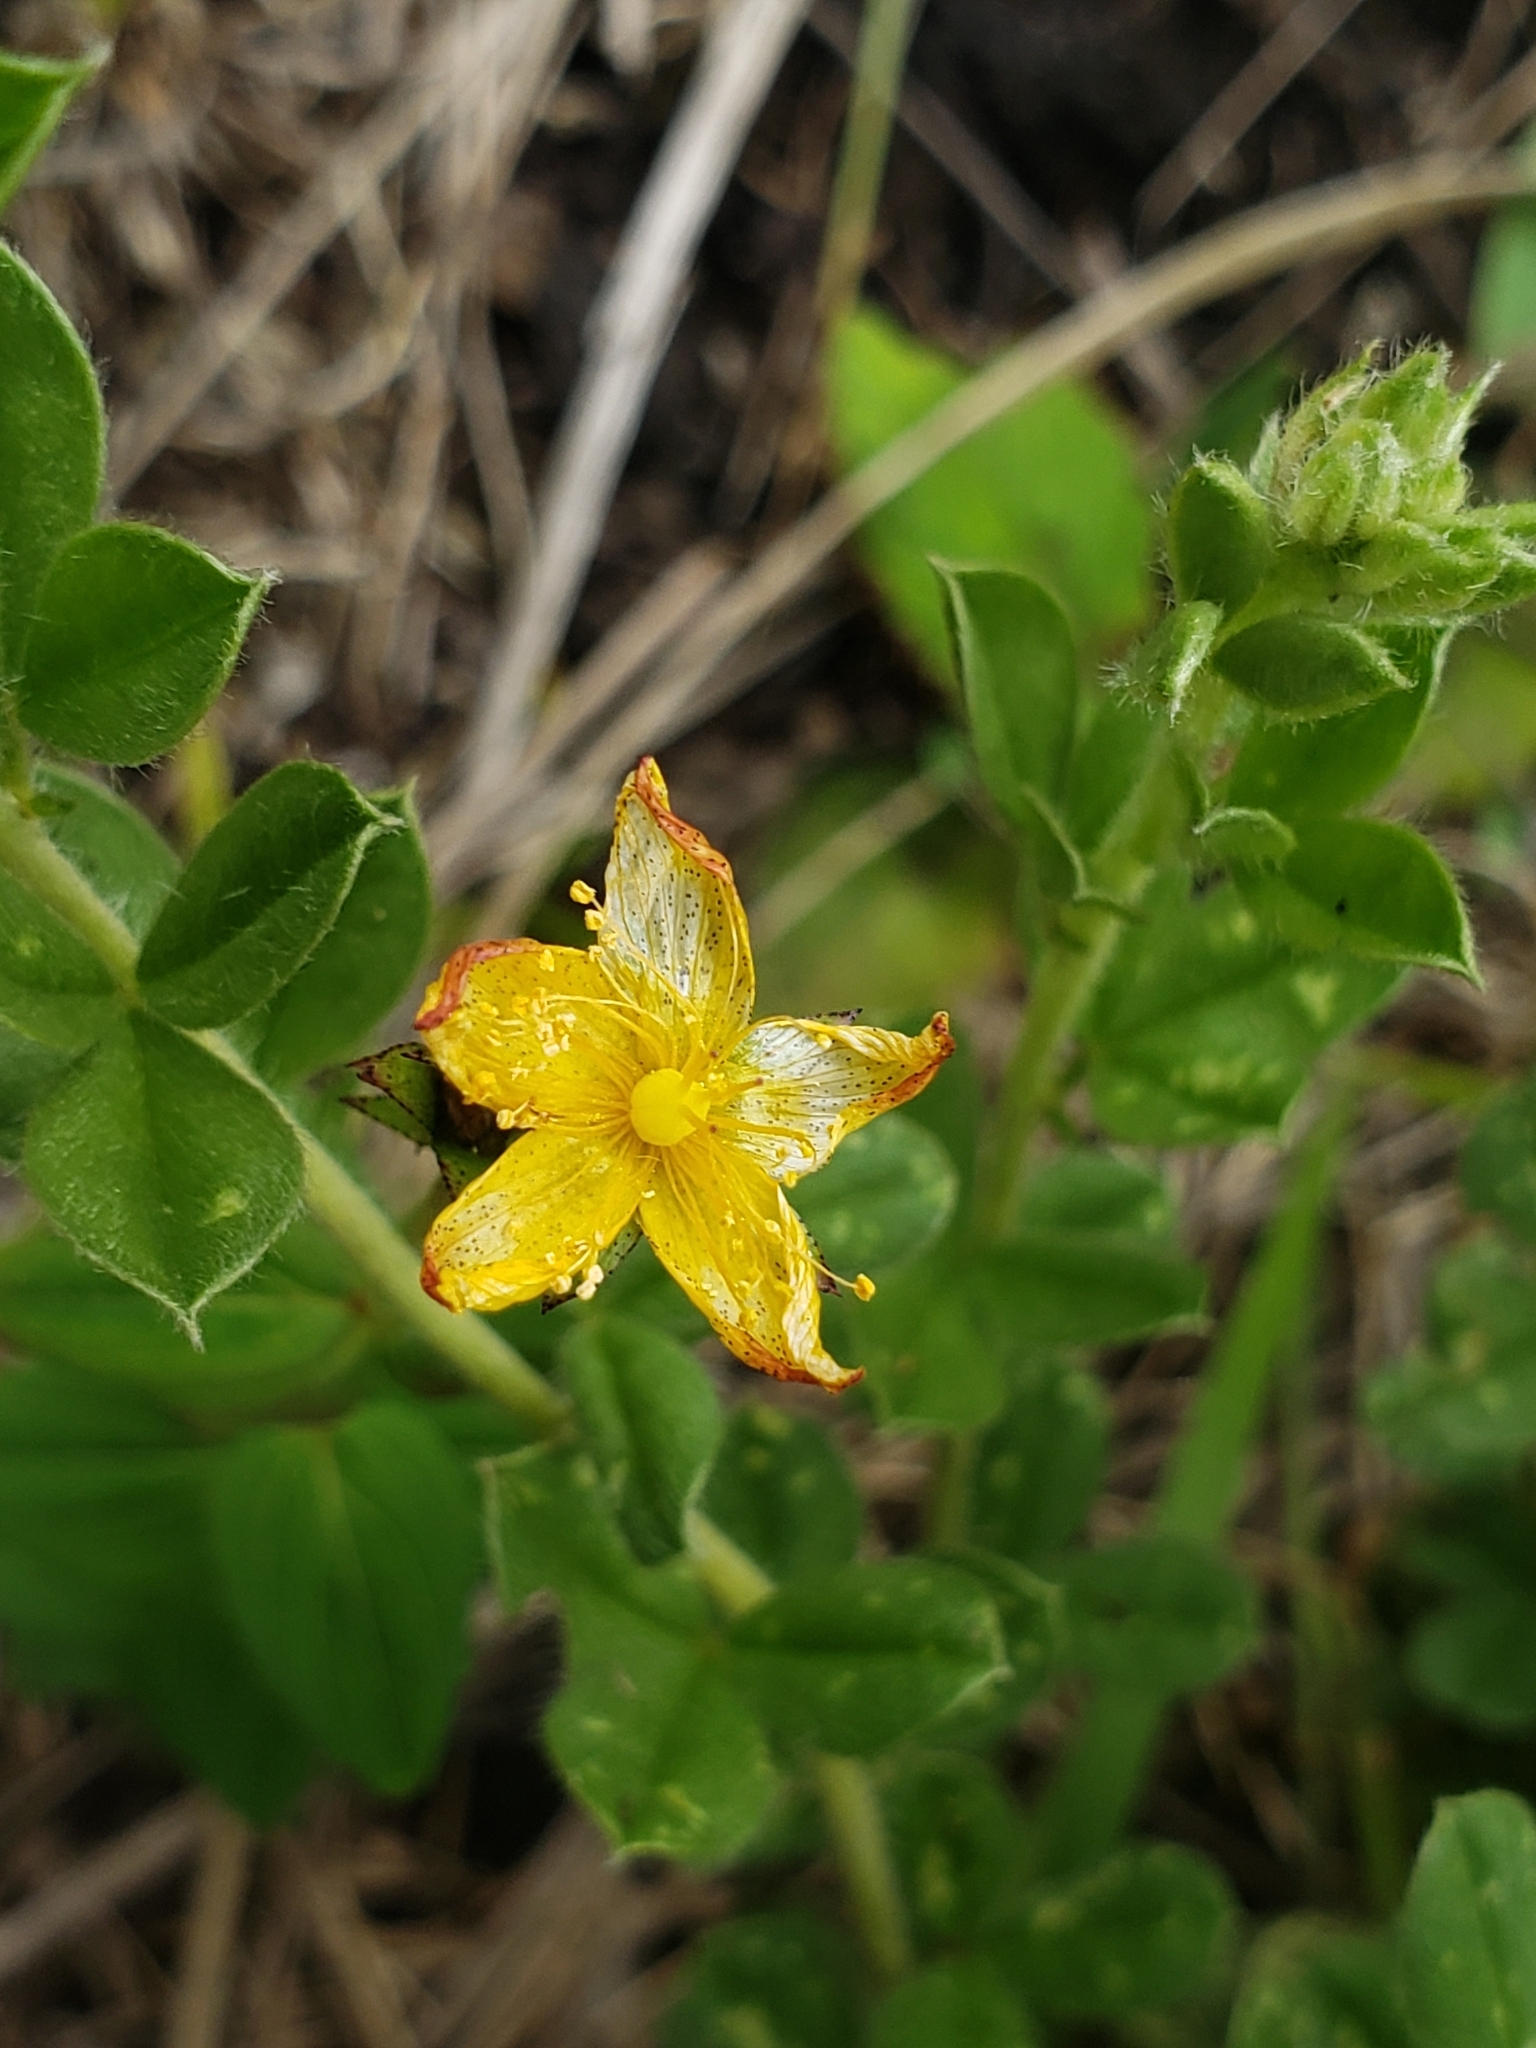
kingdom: Plantae
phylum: Tracheophyta
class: Magnoliopsida
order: Malpighiales
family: Hypericaceae
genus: Hypericum
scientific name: Hypericum aethiopicum
